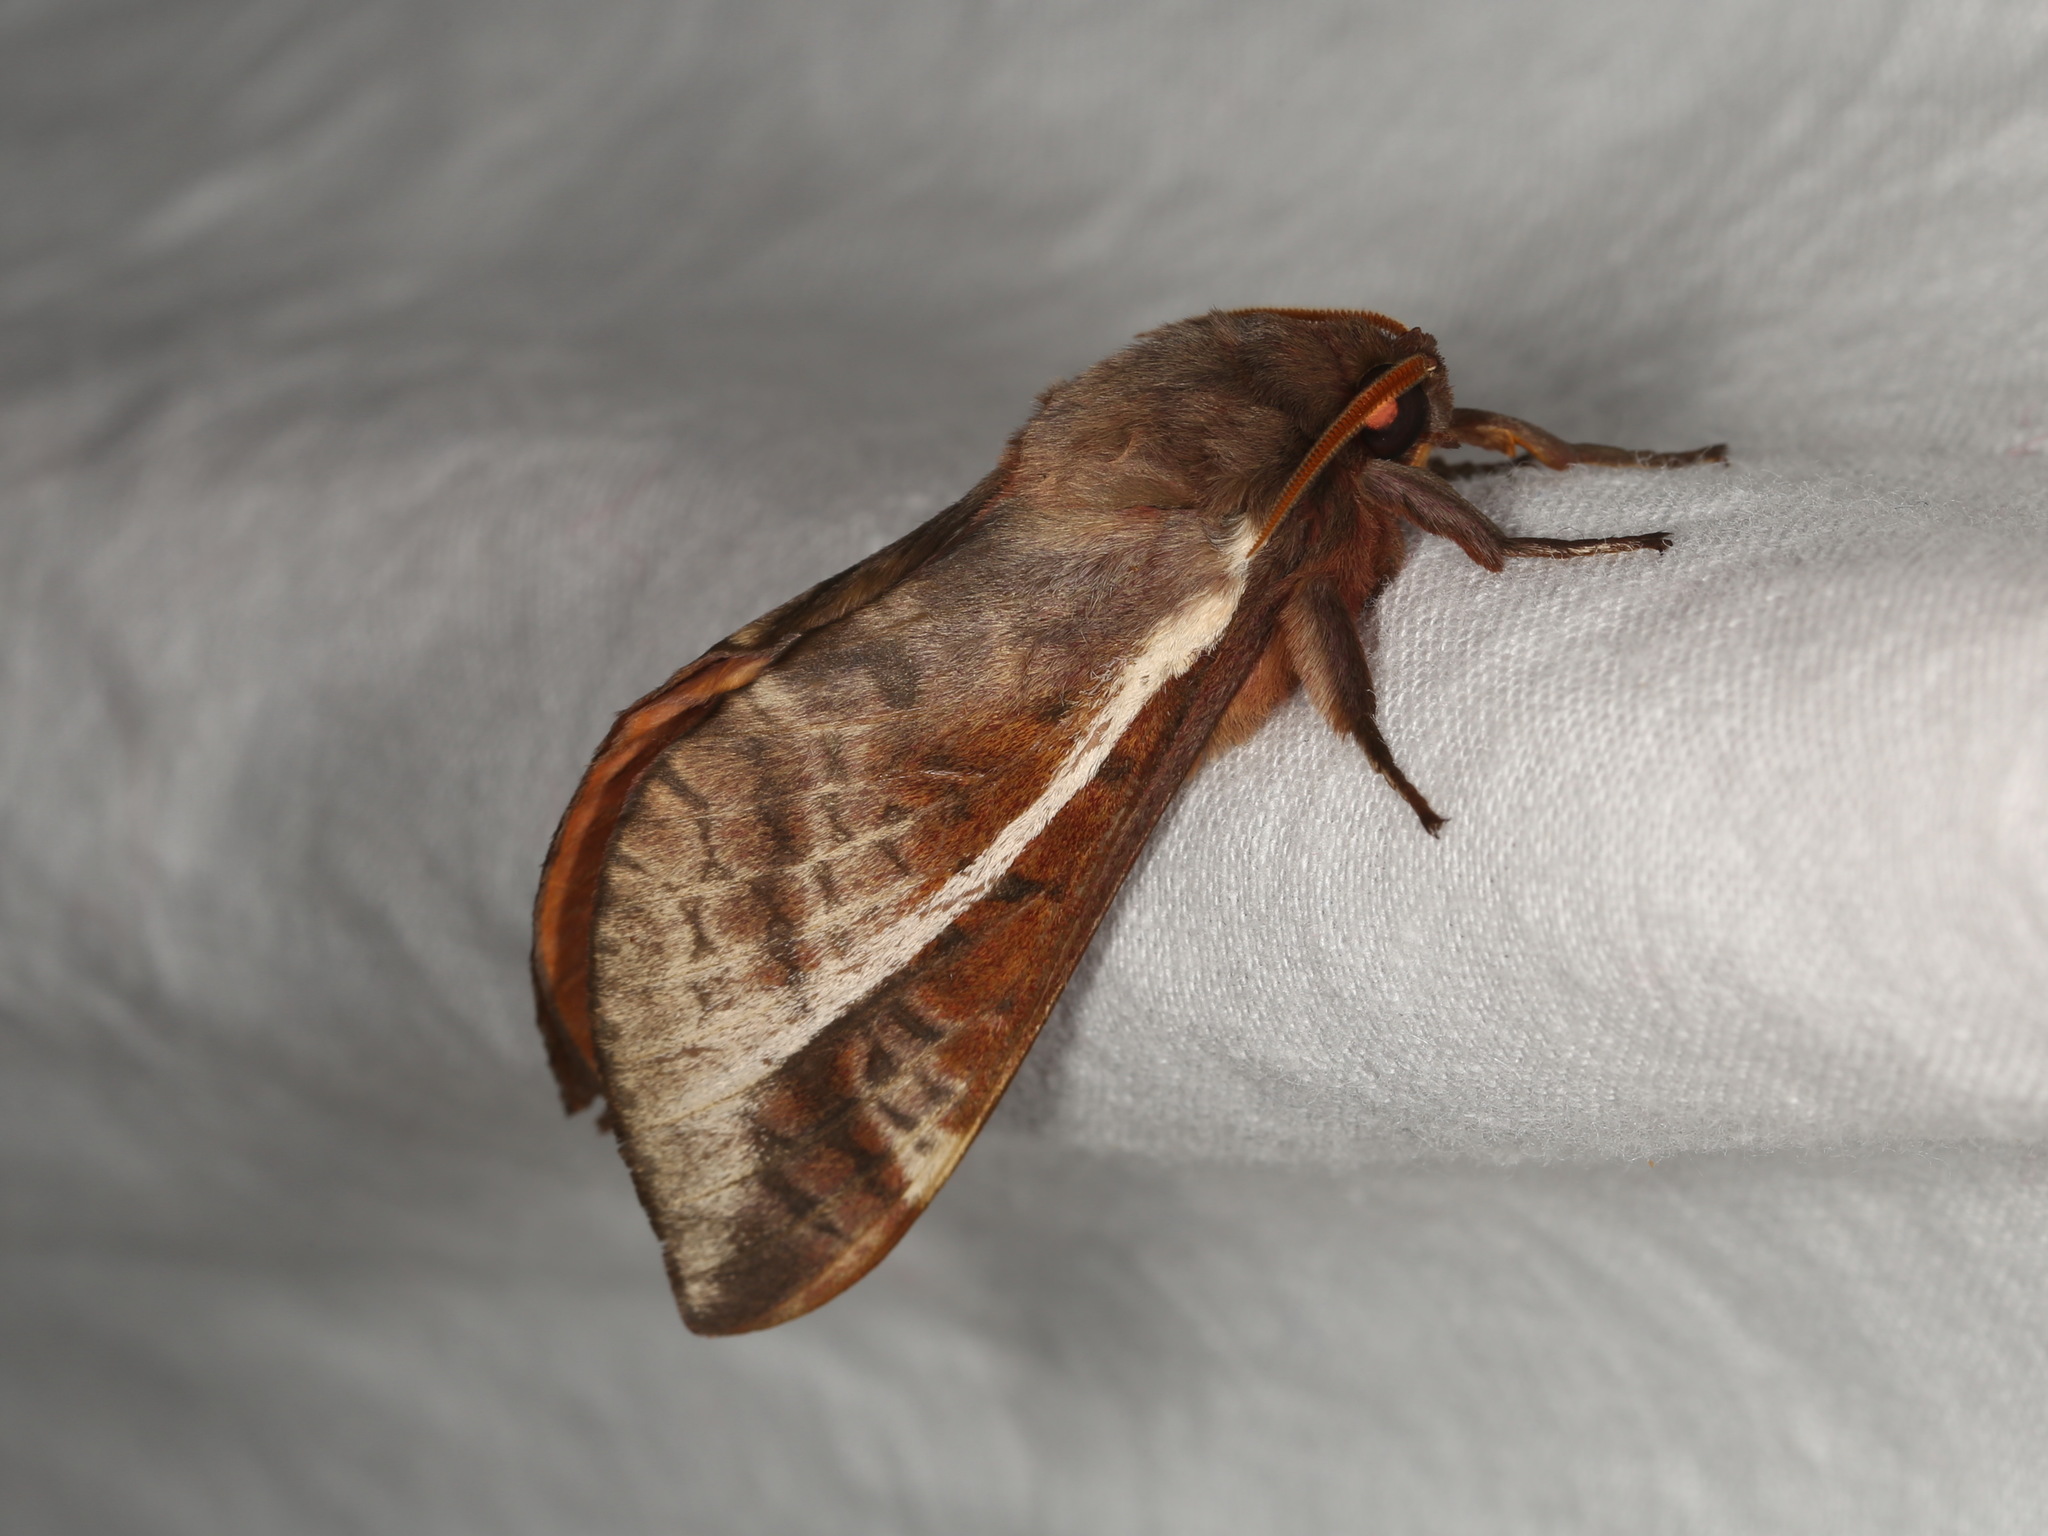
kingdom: Animalia
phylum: Arthropoda
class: Insecta
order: Lepidoptera
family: Hepialidae
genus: Oxycanus
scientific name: Oxycanus dirempta
